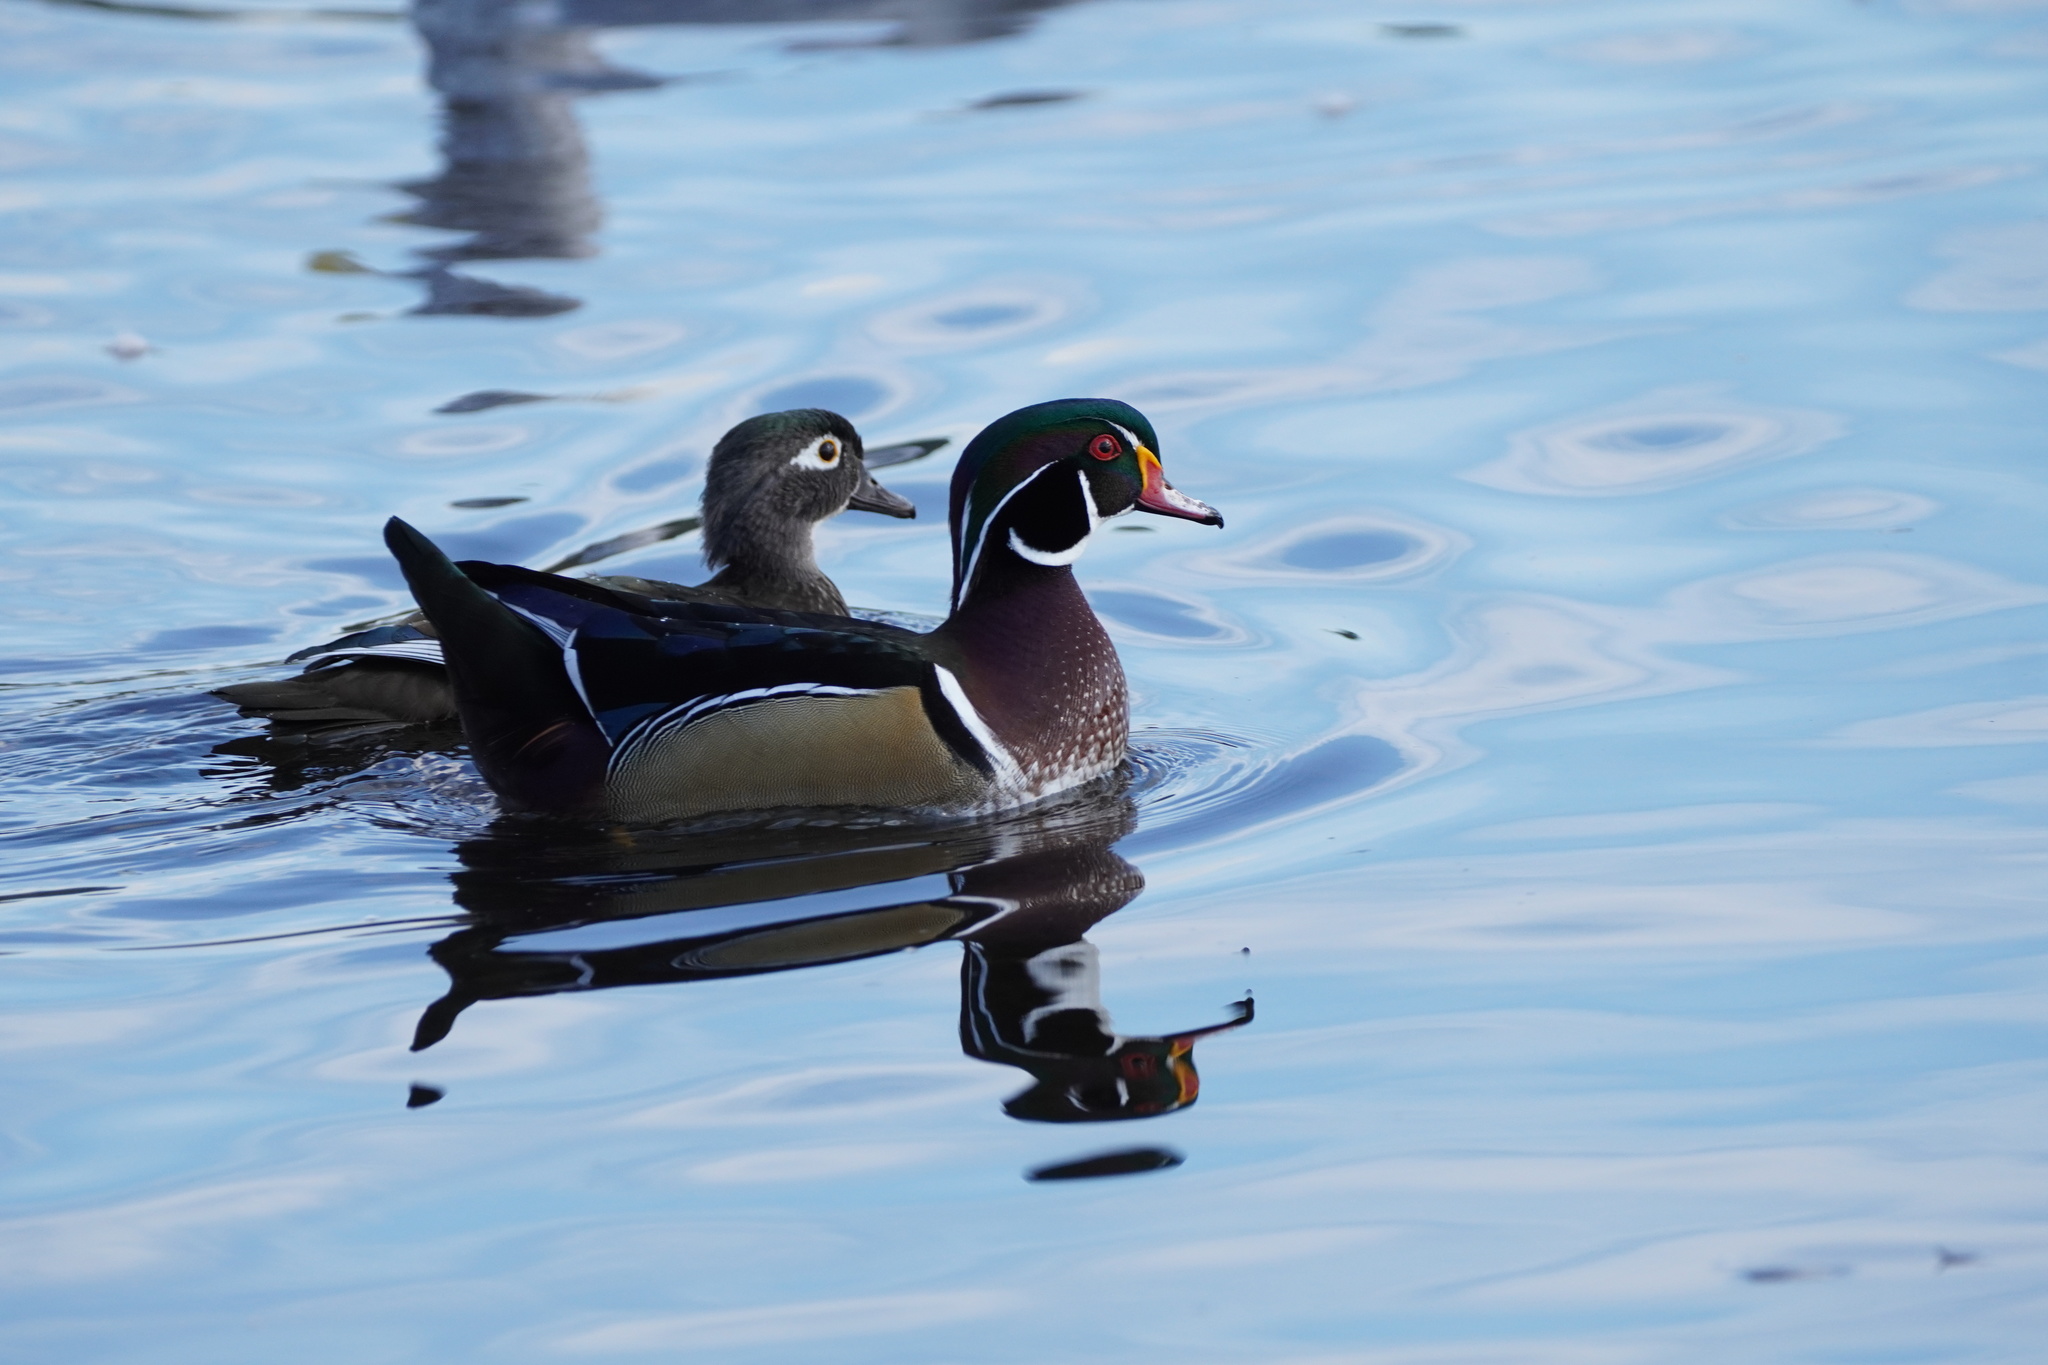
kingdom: Animalia
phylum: Chordata
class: Aves
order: Anseriformes
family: Anatidae
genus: Aix
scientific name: Aix sponsa
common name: Wood duck
